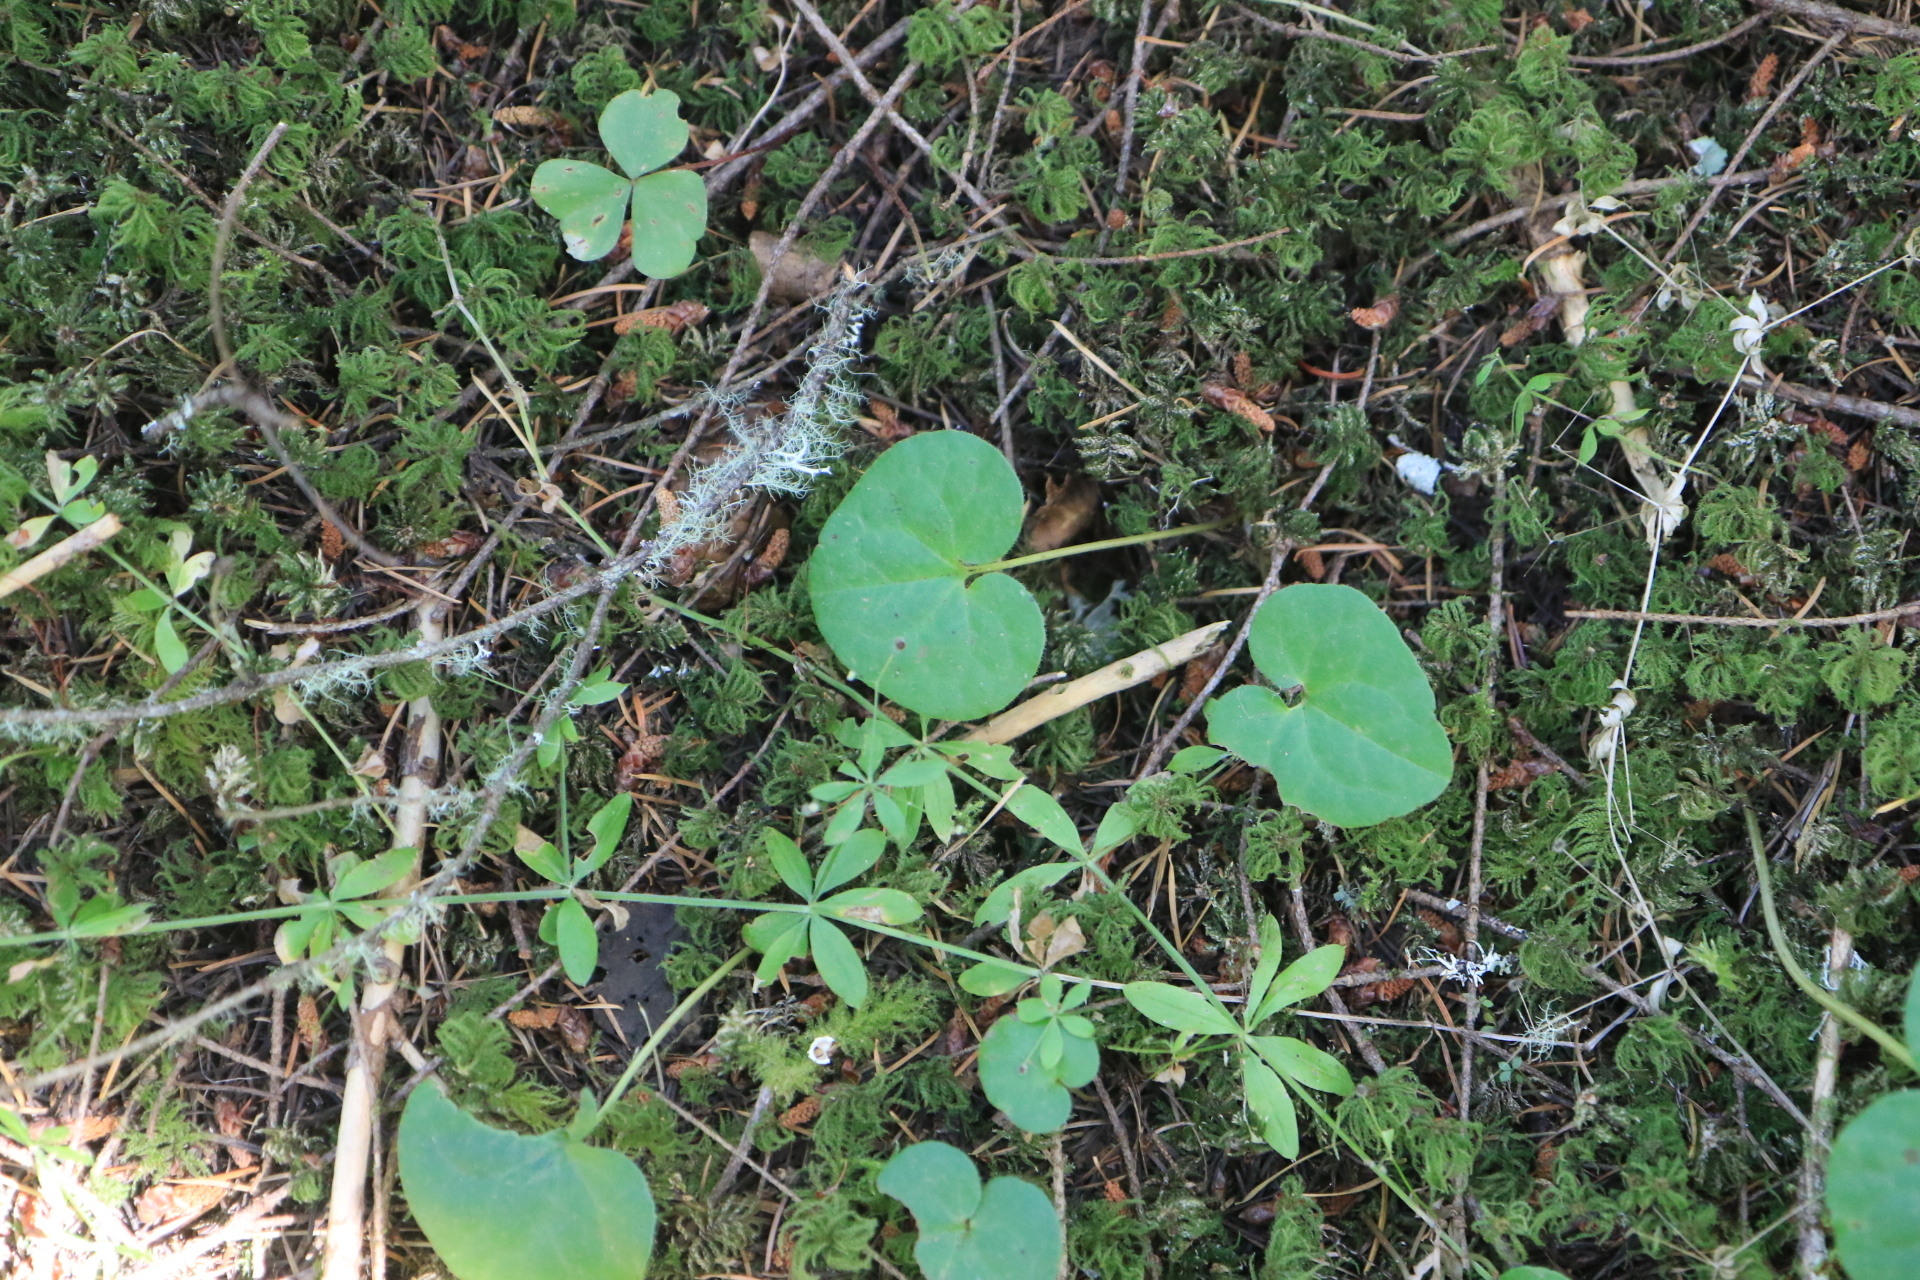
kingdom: Plantae
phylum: Tracheophyta
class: Magnoliopsida
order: Piperales
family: Aristolochiaceae
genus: Asarum
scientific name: Asarum caudatum
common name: Wild ginger
